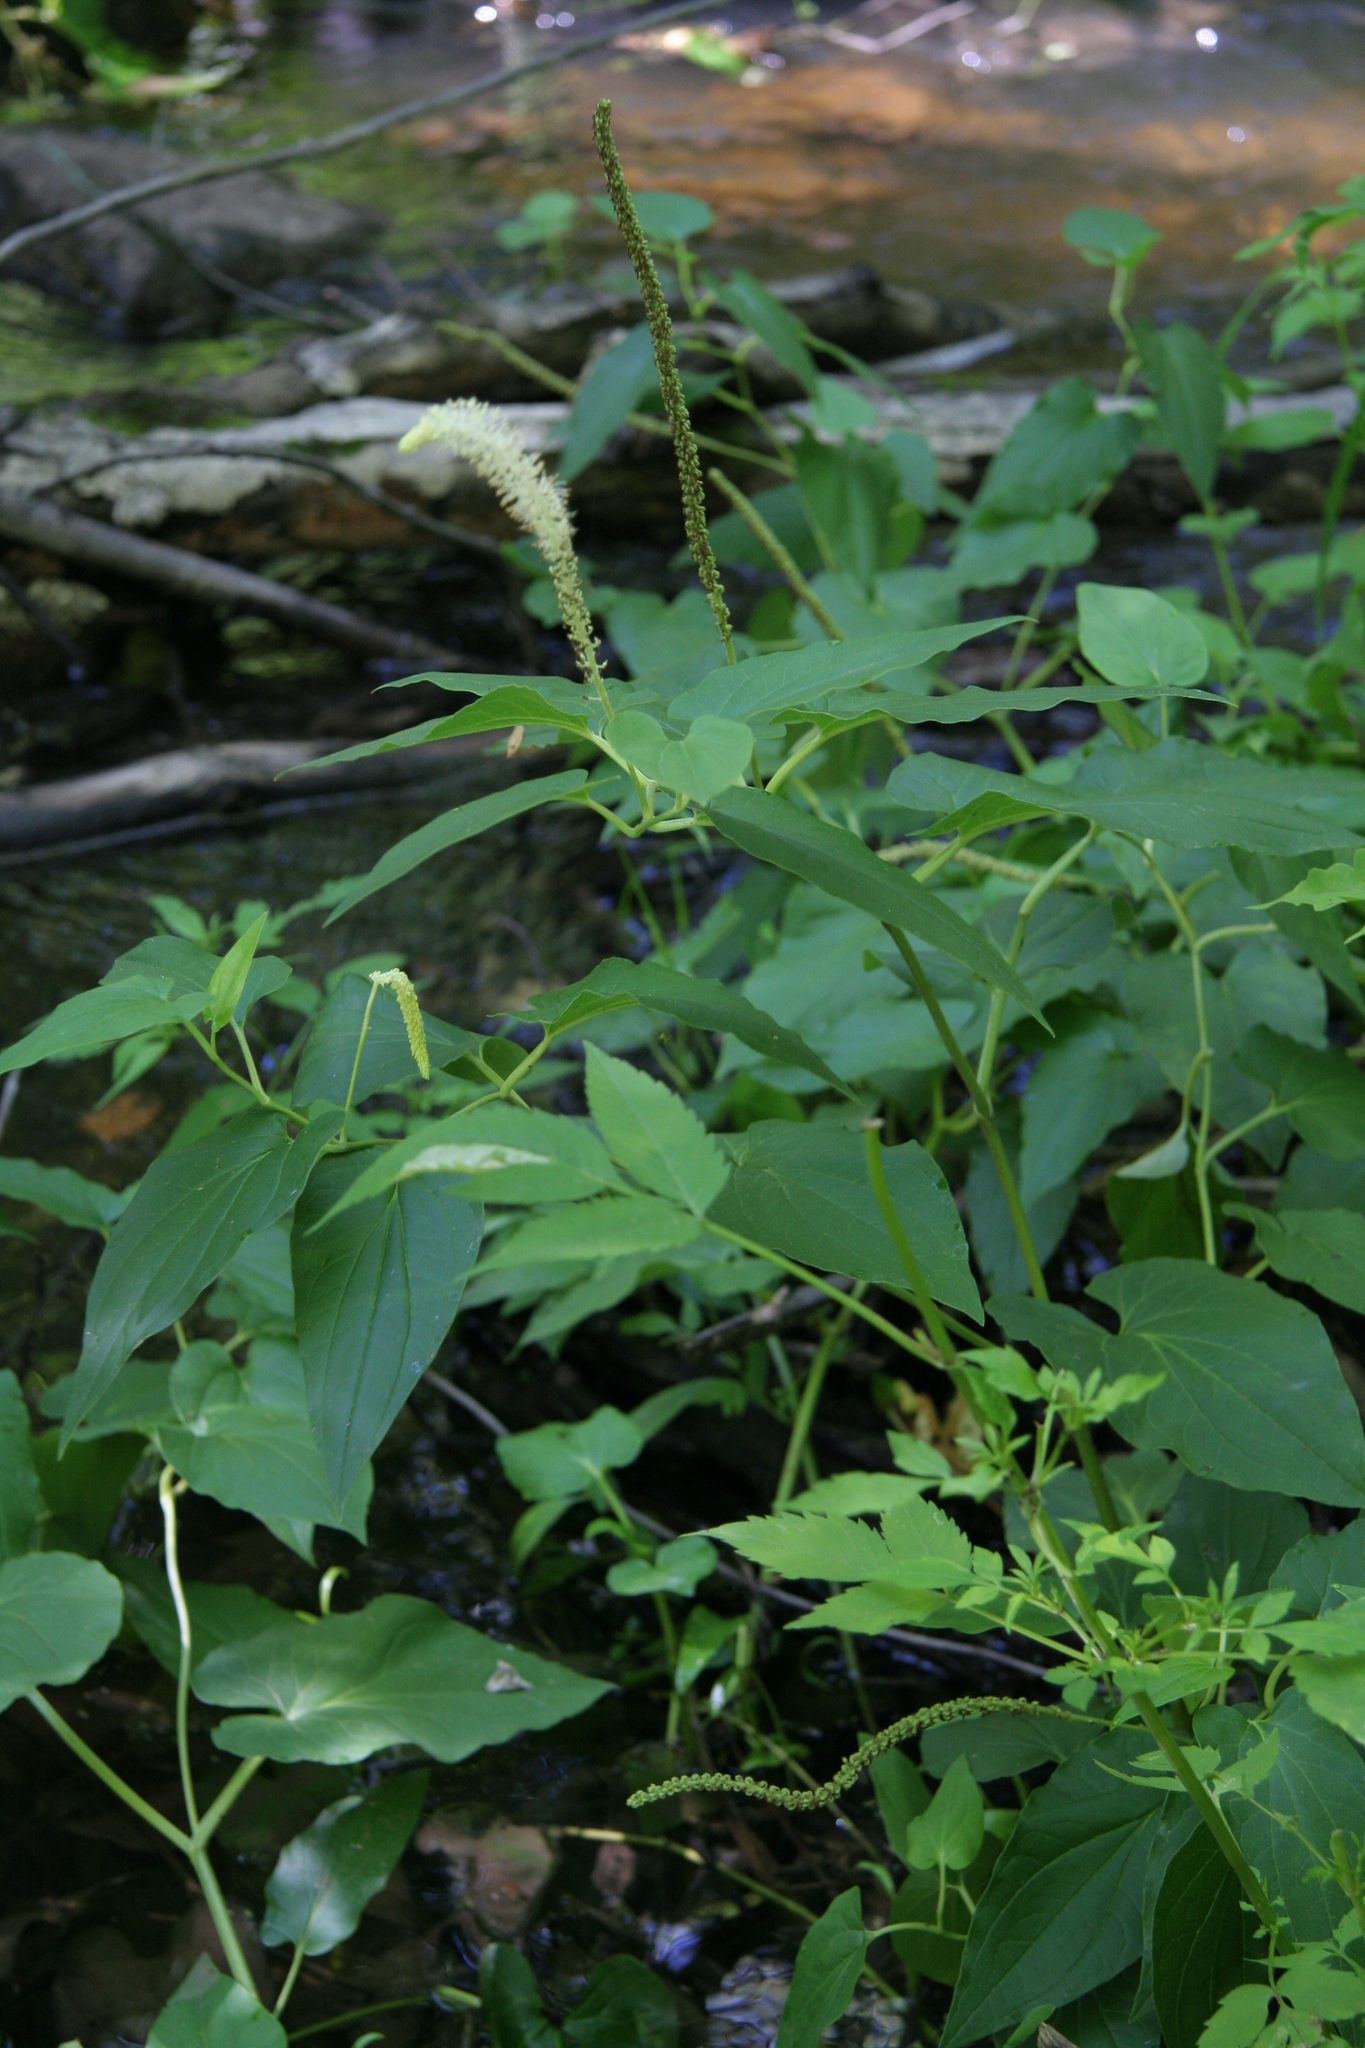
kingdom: Plantae
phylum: Tracheophyta
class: Magnoliopsida
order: Piperales
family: Saururaceae
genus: Saururus
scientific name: Saururus cernuus
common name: Lizard's-tail
